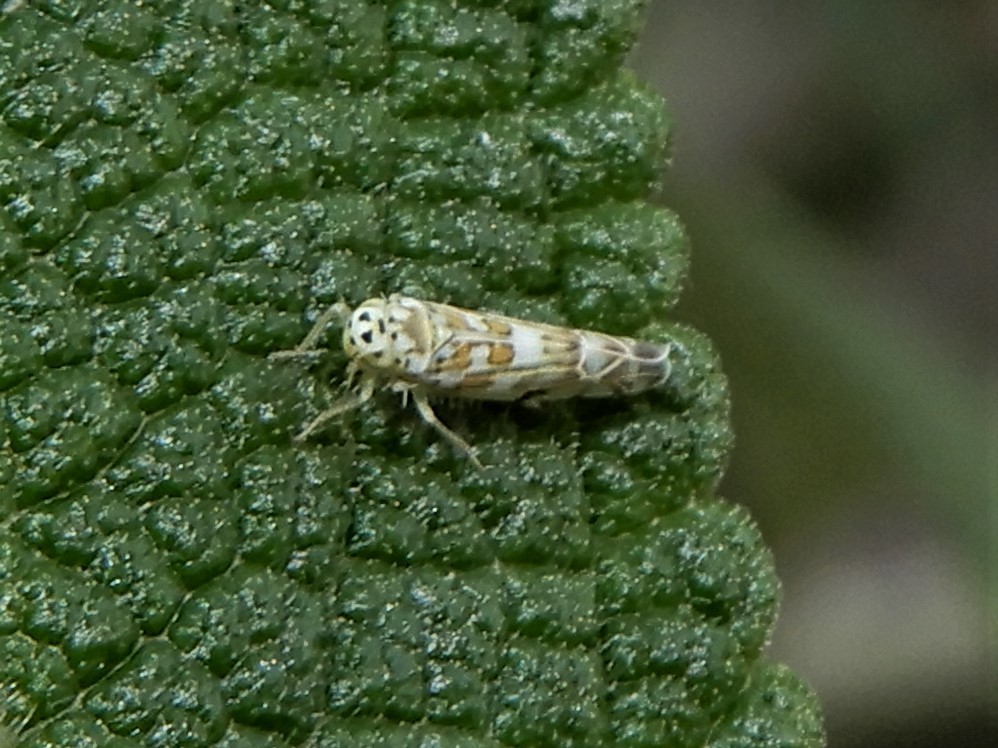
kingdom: Animalia
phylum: Arthropoda
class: Insecta
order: Hemiptera
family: Cicadellidae
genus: Eupteryx
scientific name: Eupteryx melissae
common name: Herb leafhopper
